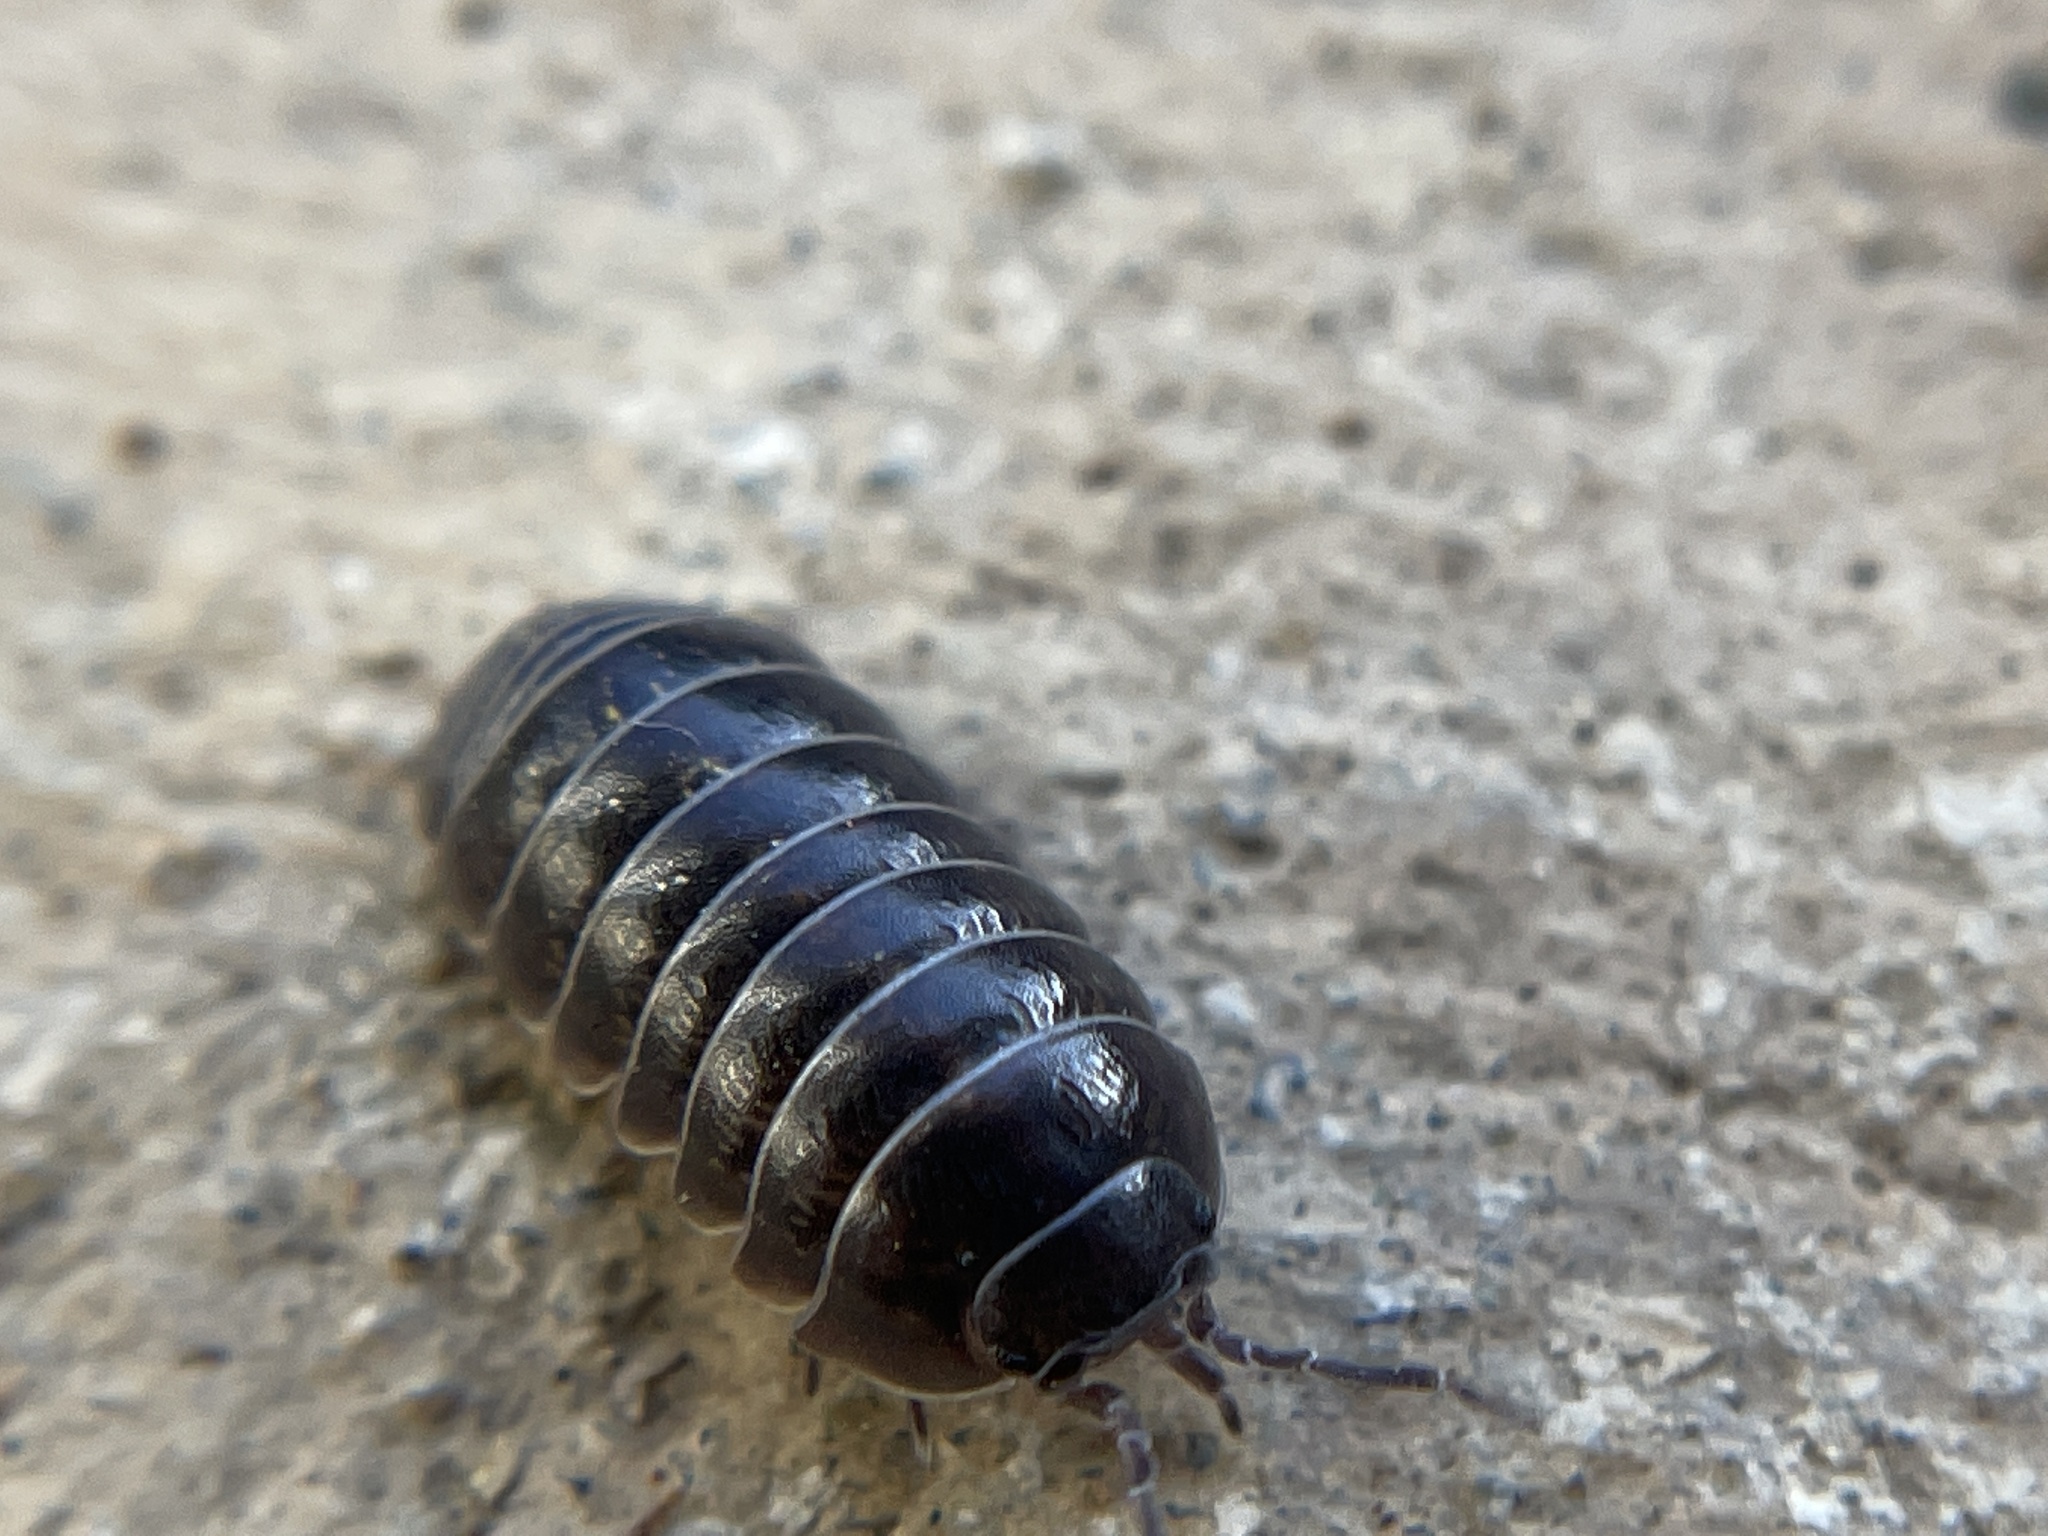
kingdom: Animalia
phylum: Arthropoda
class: Malacostraca
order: Isopoda
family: Armadillidiidae
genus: Armadillidium
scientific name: Armadillidium vulgare
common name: Common pill woodlouse
